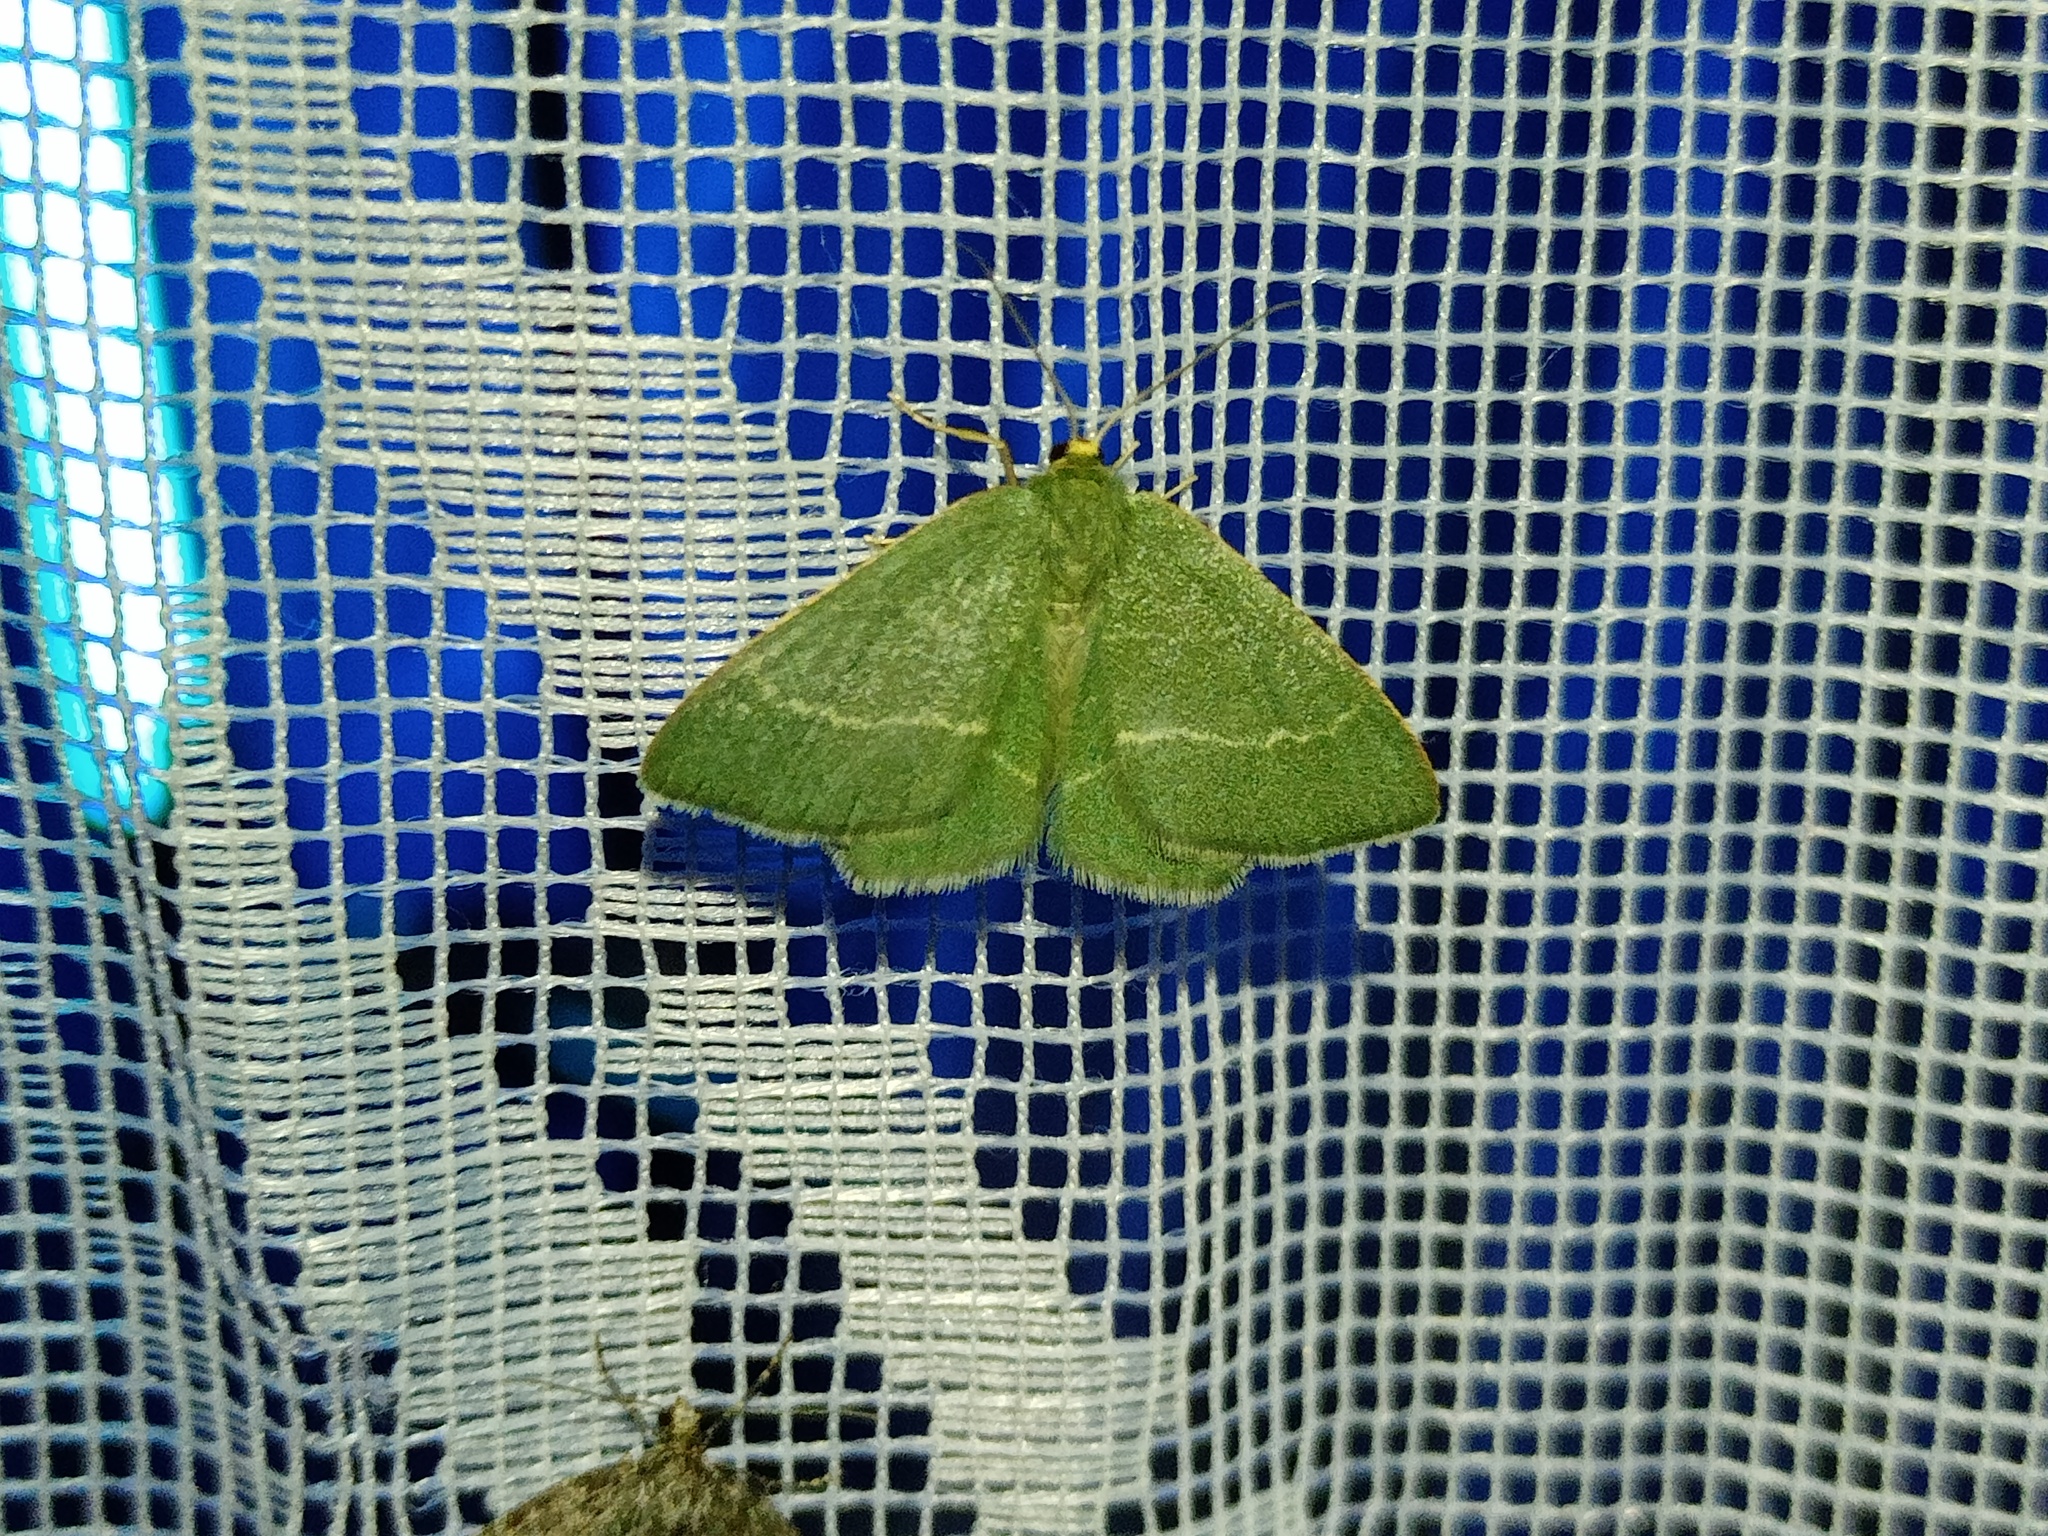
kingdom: Animalia
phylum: Arthropoda
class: Insecta
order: Lepidoptera
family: Geometridae
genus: Chlorissa
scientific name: Chlorissa cloraria
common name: Southern grass emerald
